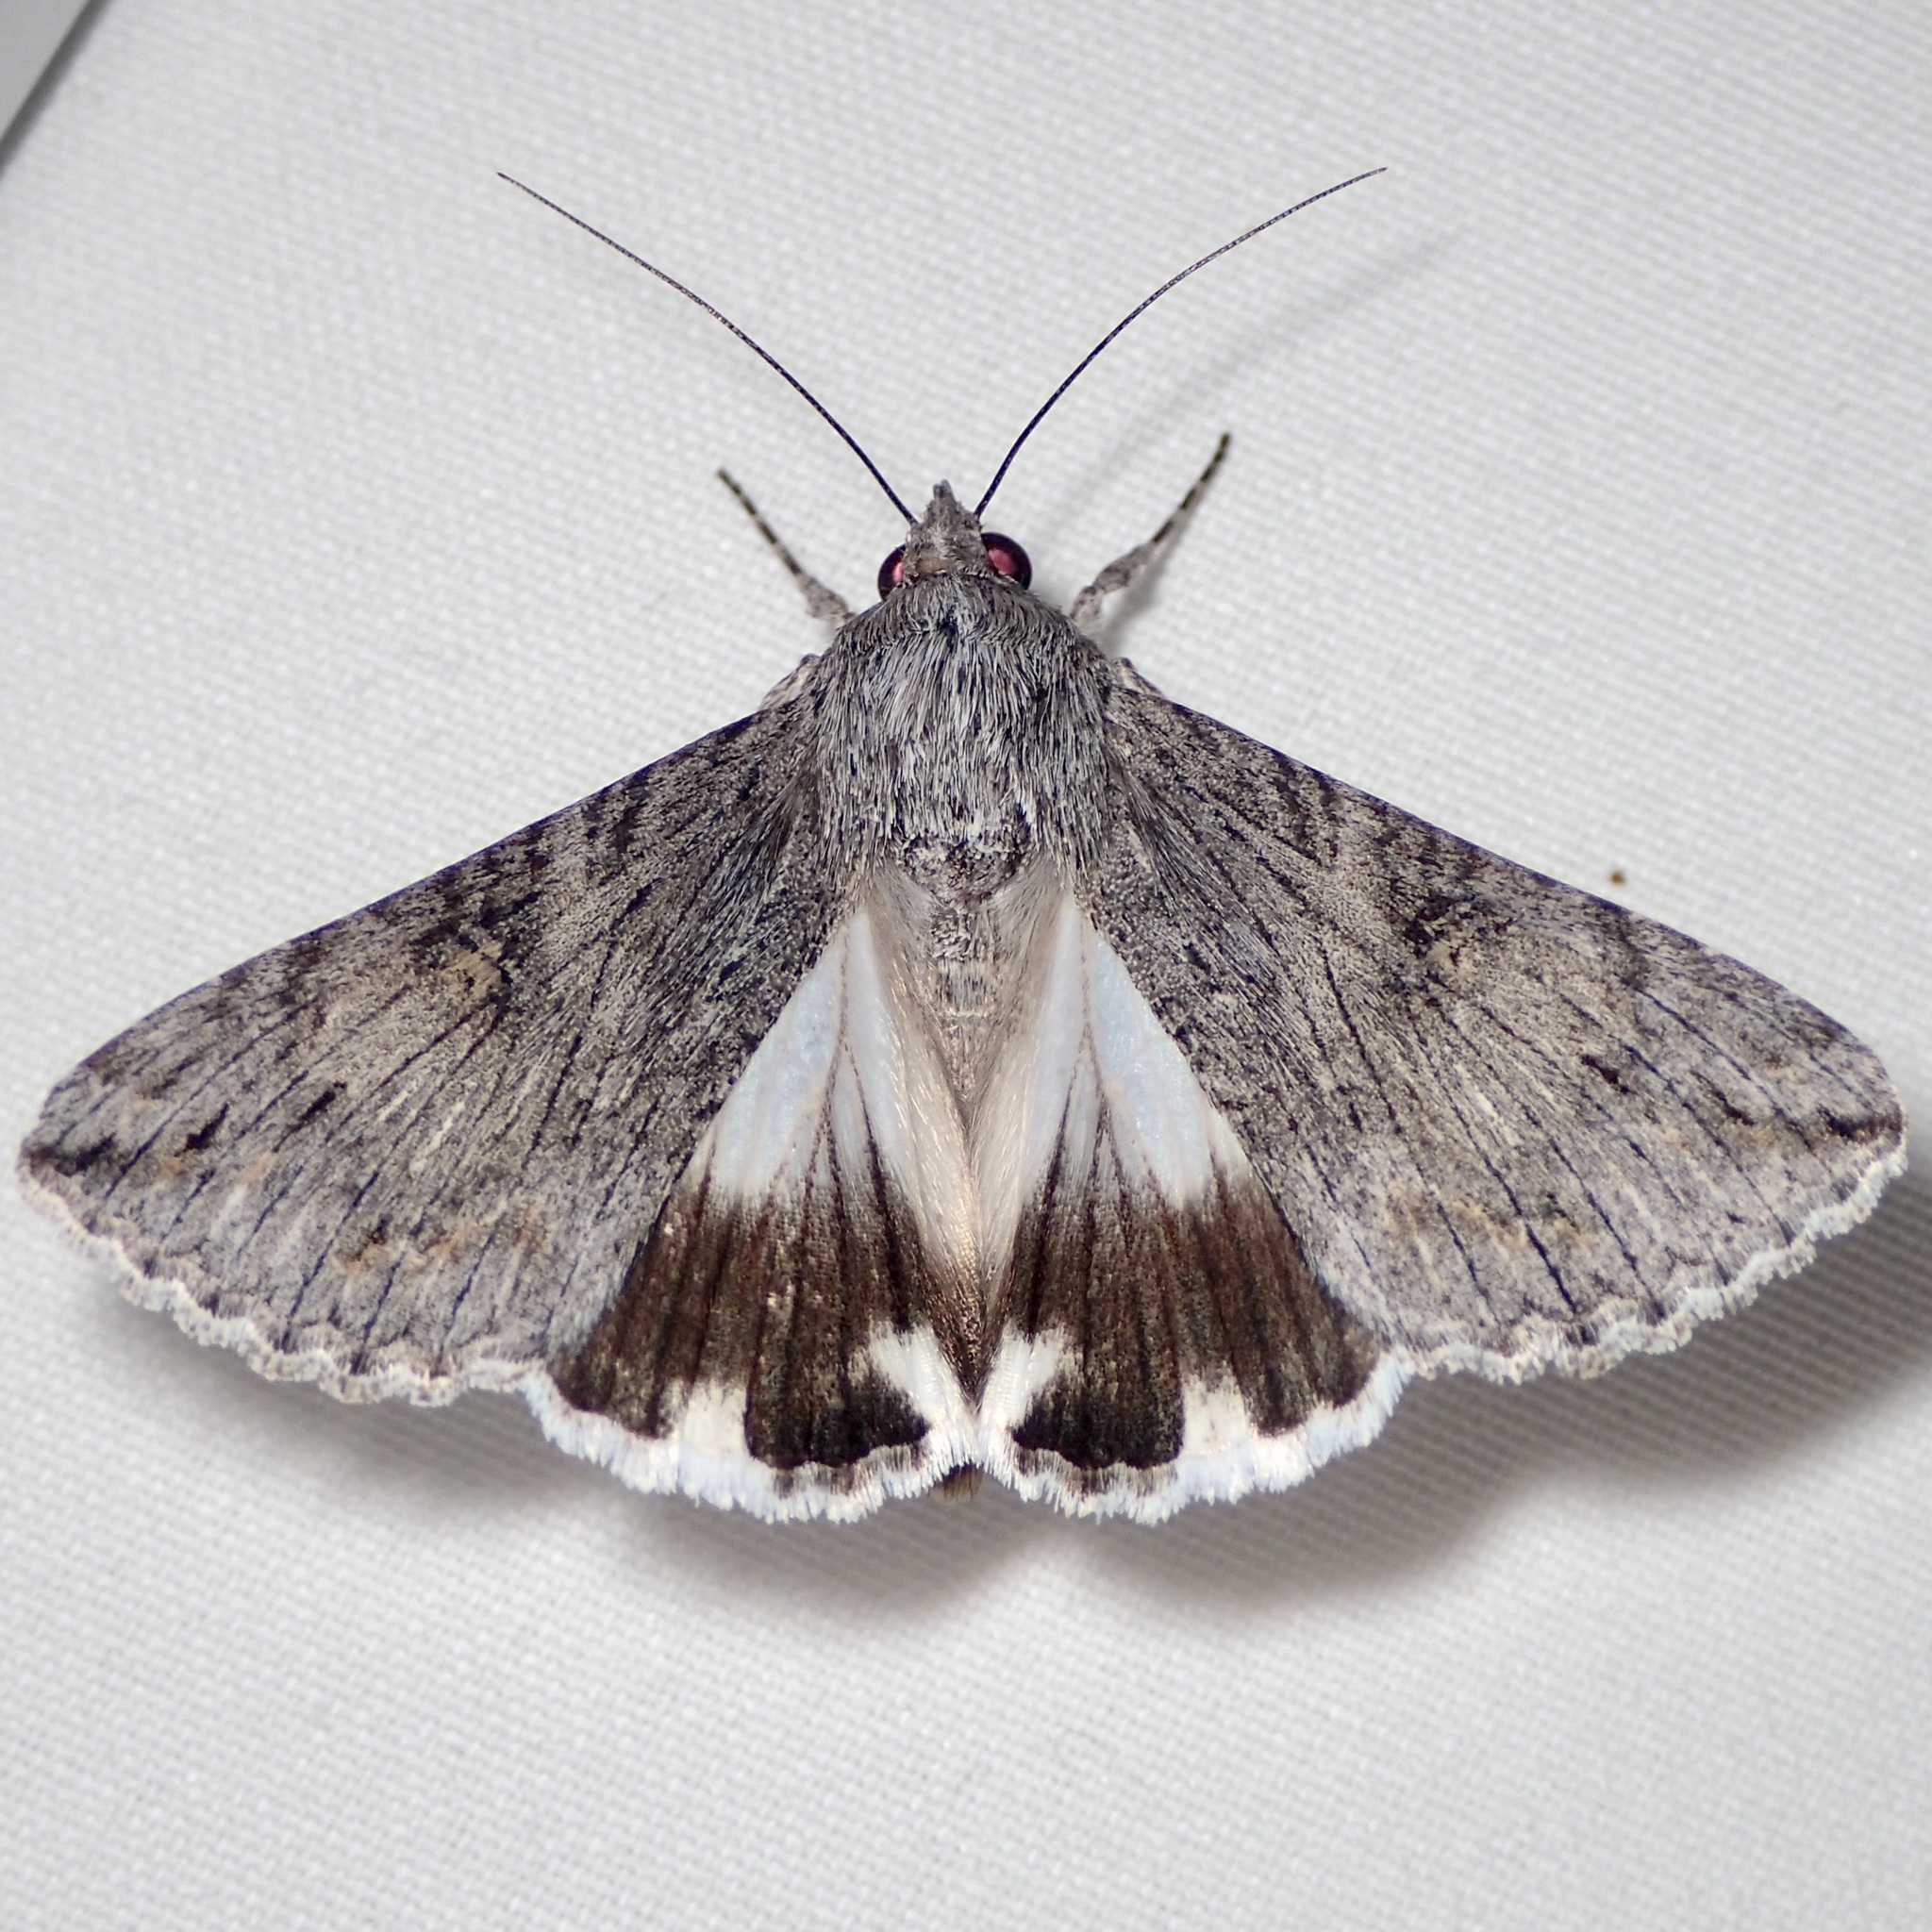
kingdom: Animalia
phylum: Arthropoda
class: Insecta
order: Lepidoptera
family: Erebidae
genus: Melipotis
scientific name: Melipotis jucunda
